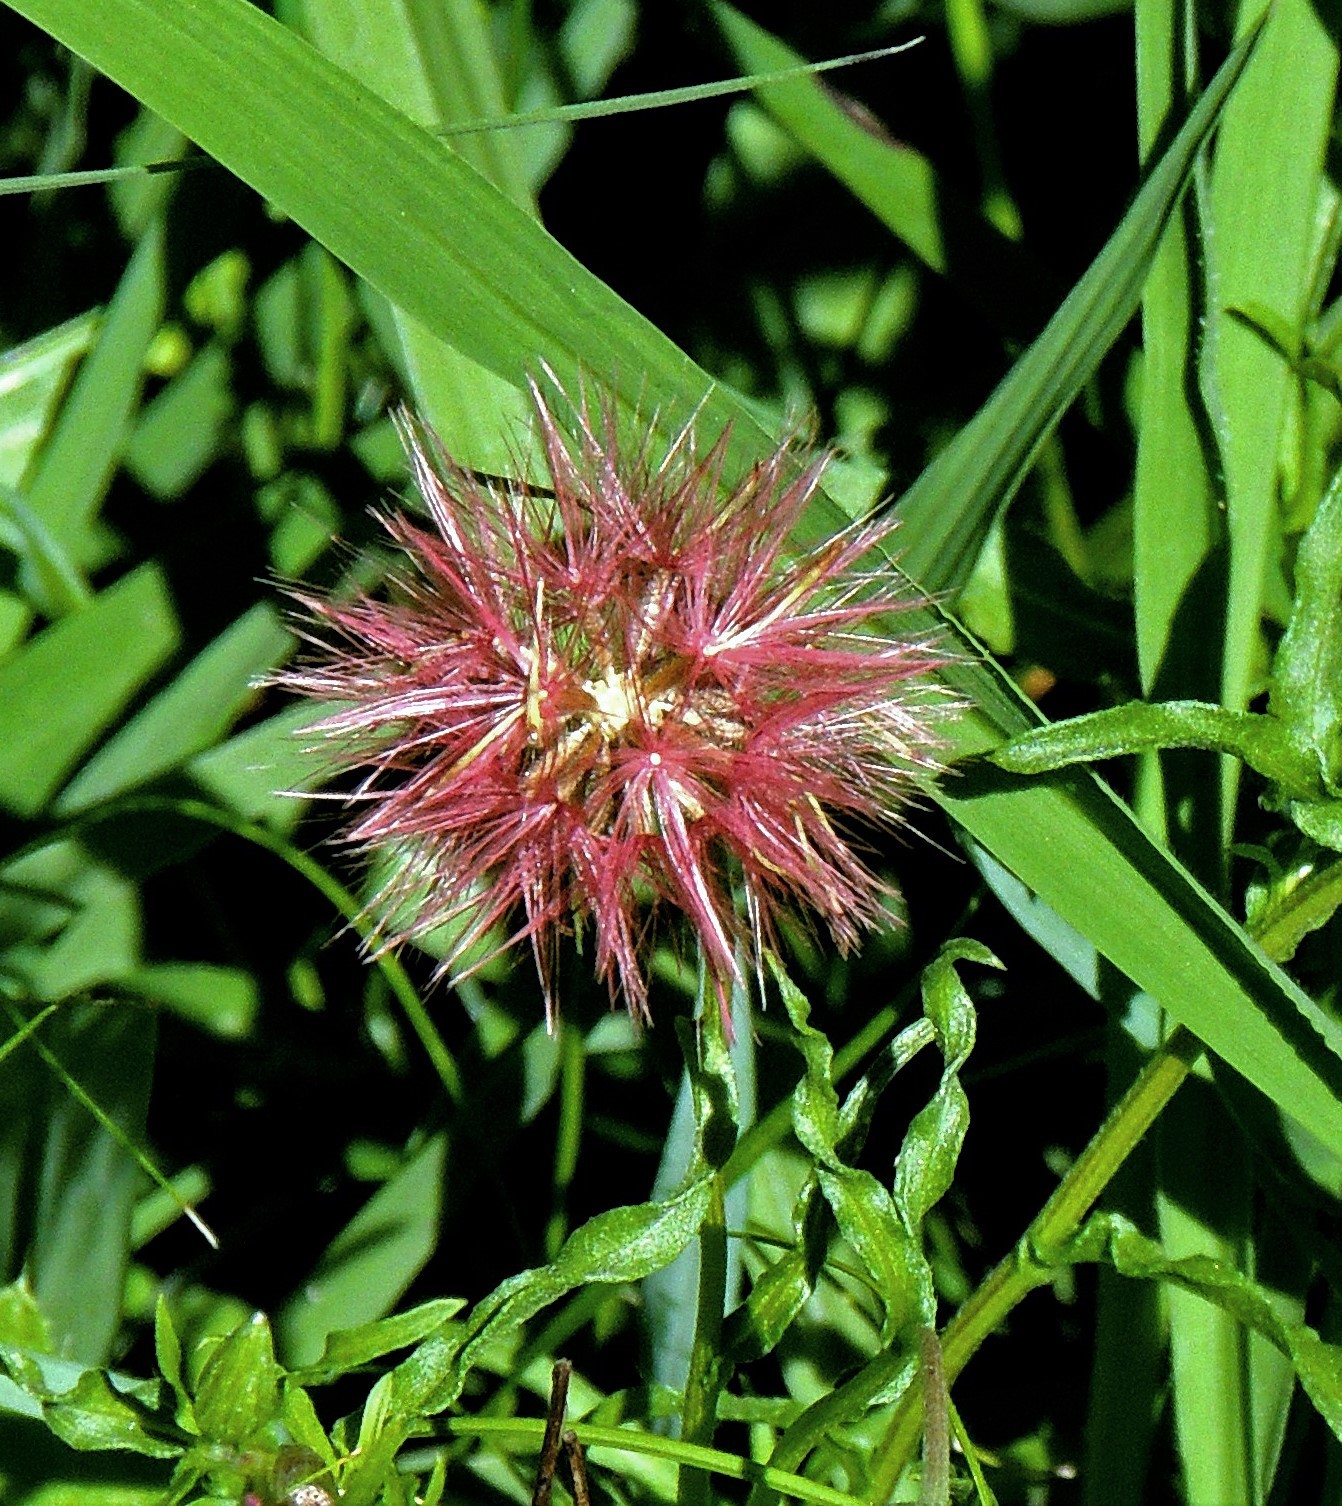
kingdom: Plantae
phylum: Tracheophyta
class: Magnoliopsida
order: Asterales
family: Asteraceae
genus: Noticastrum
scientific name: Noticastrum diffusum
